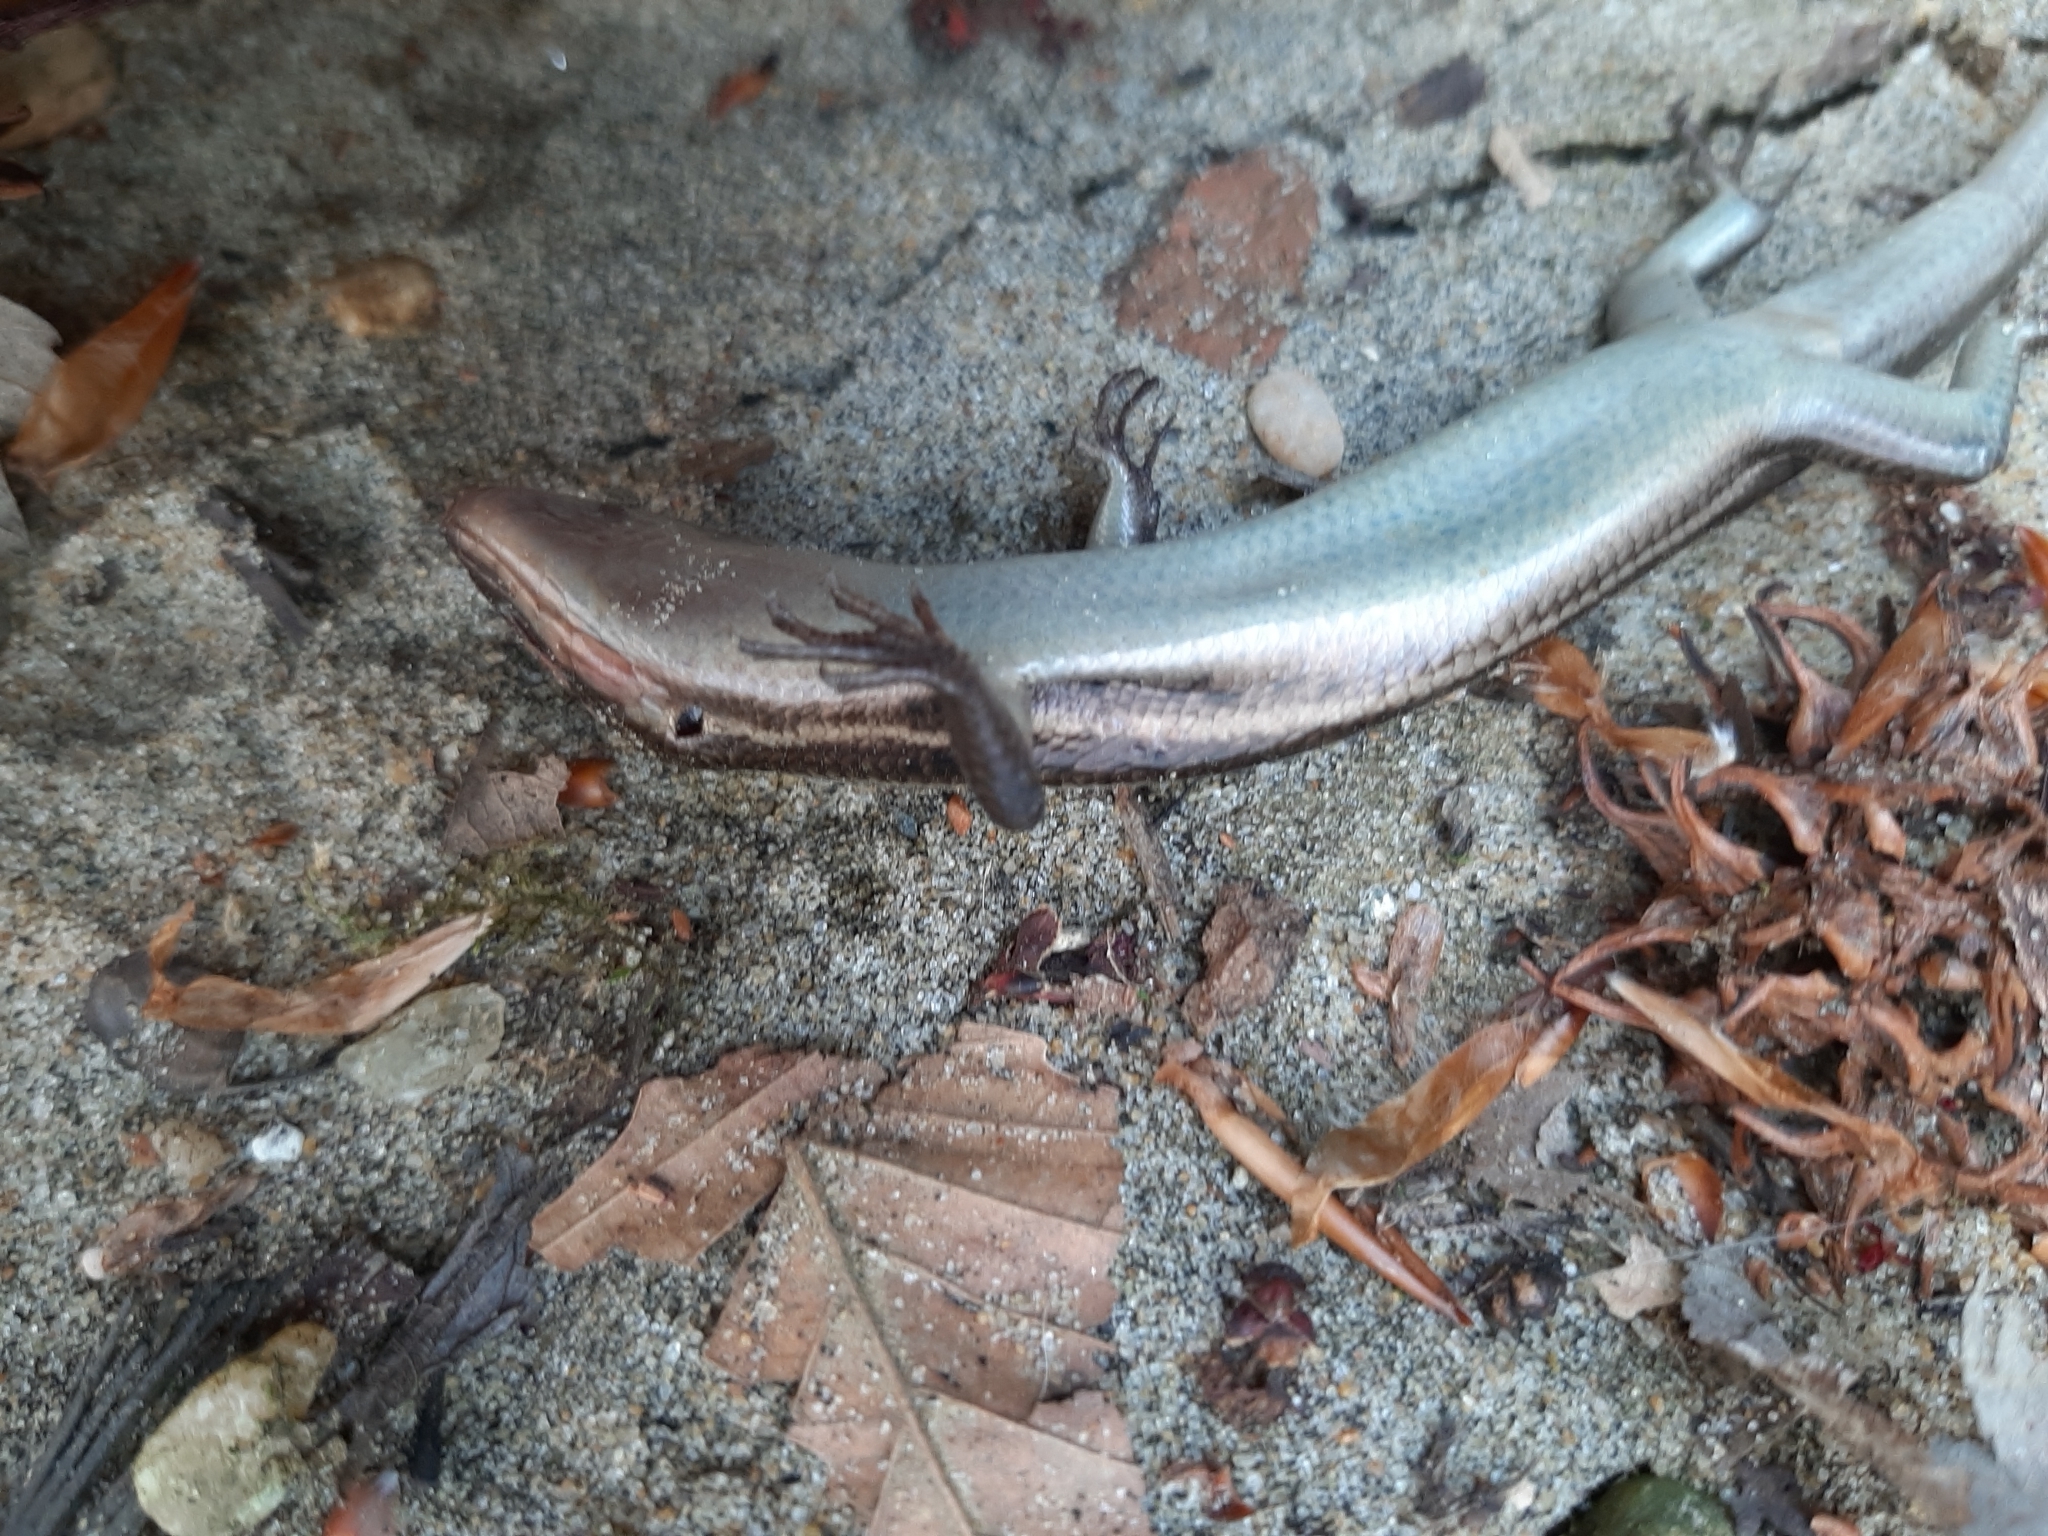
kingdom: Animalia
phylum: Chordata
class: Squamata
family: Scincidae
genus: Plestiodon
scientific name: Plestiodon fasciatus
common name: Five-lined skink
